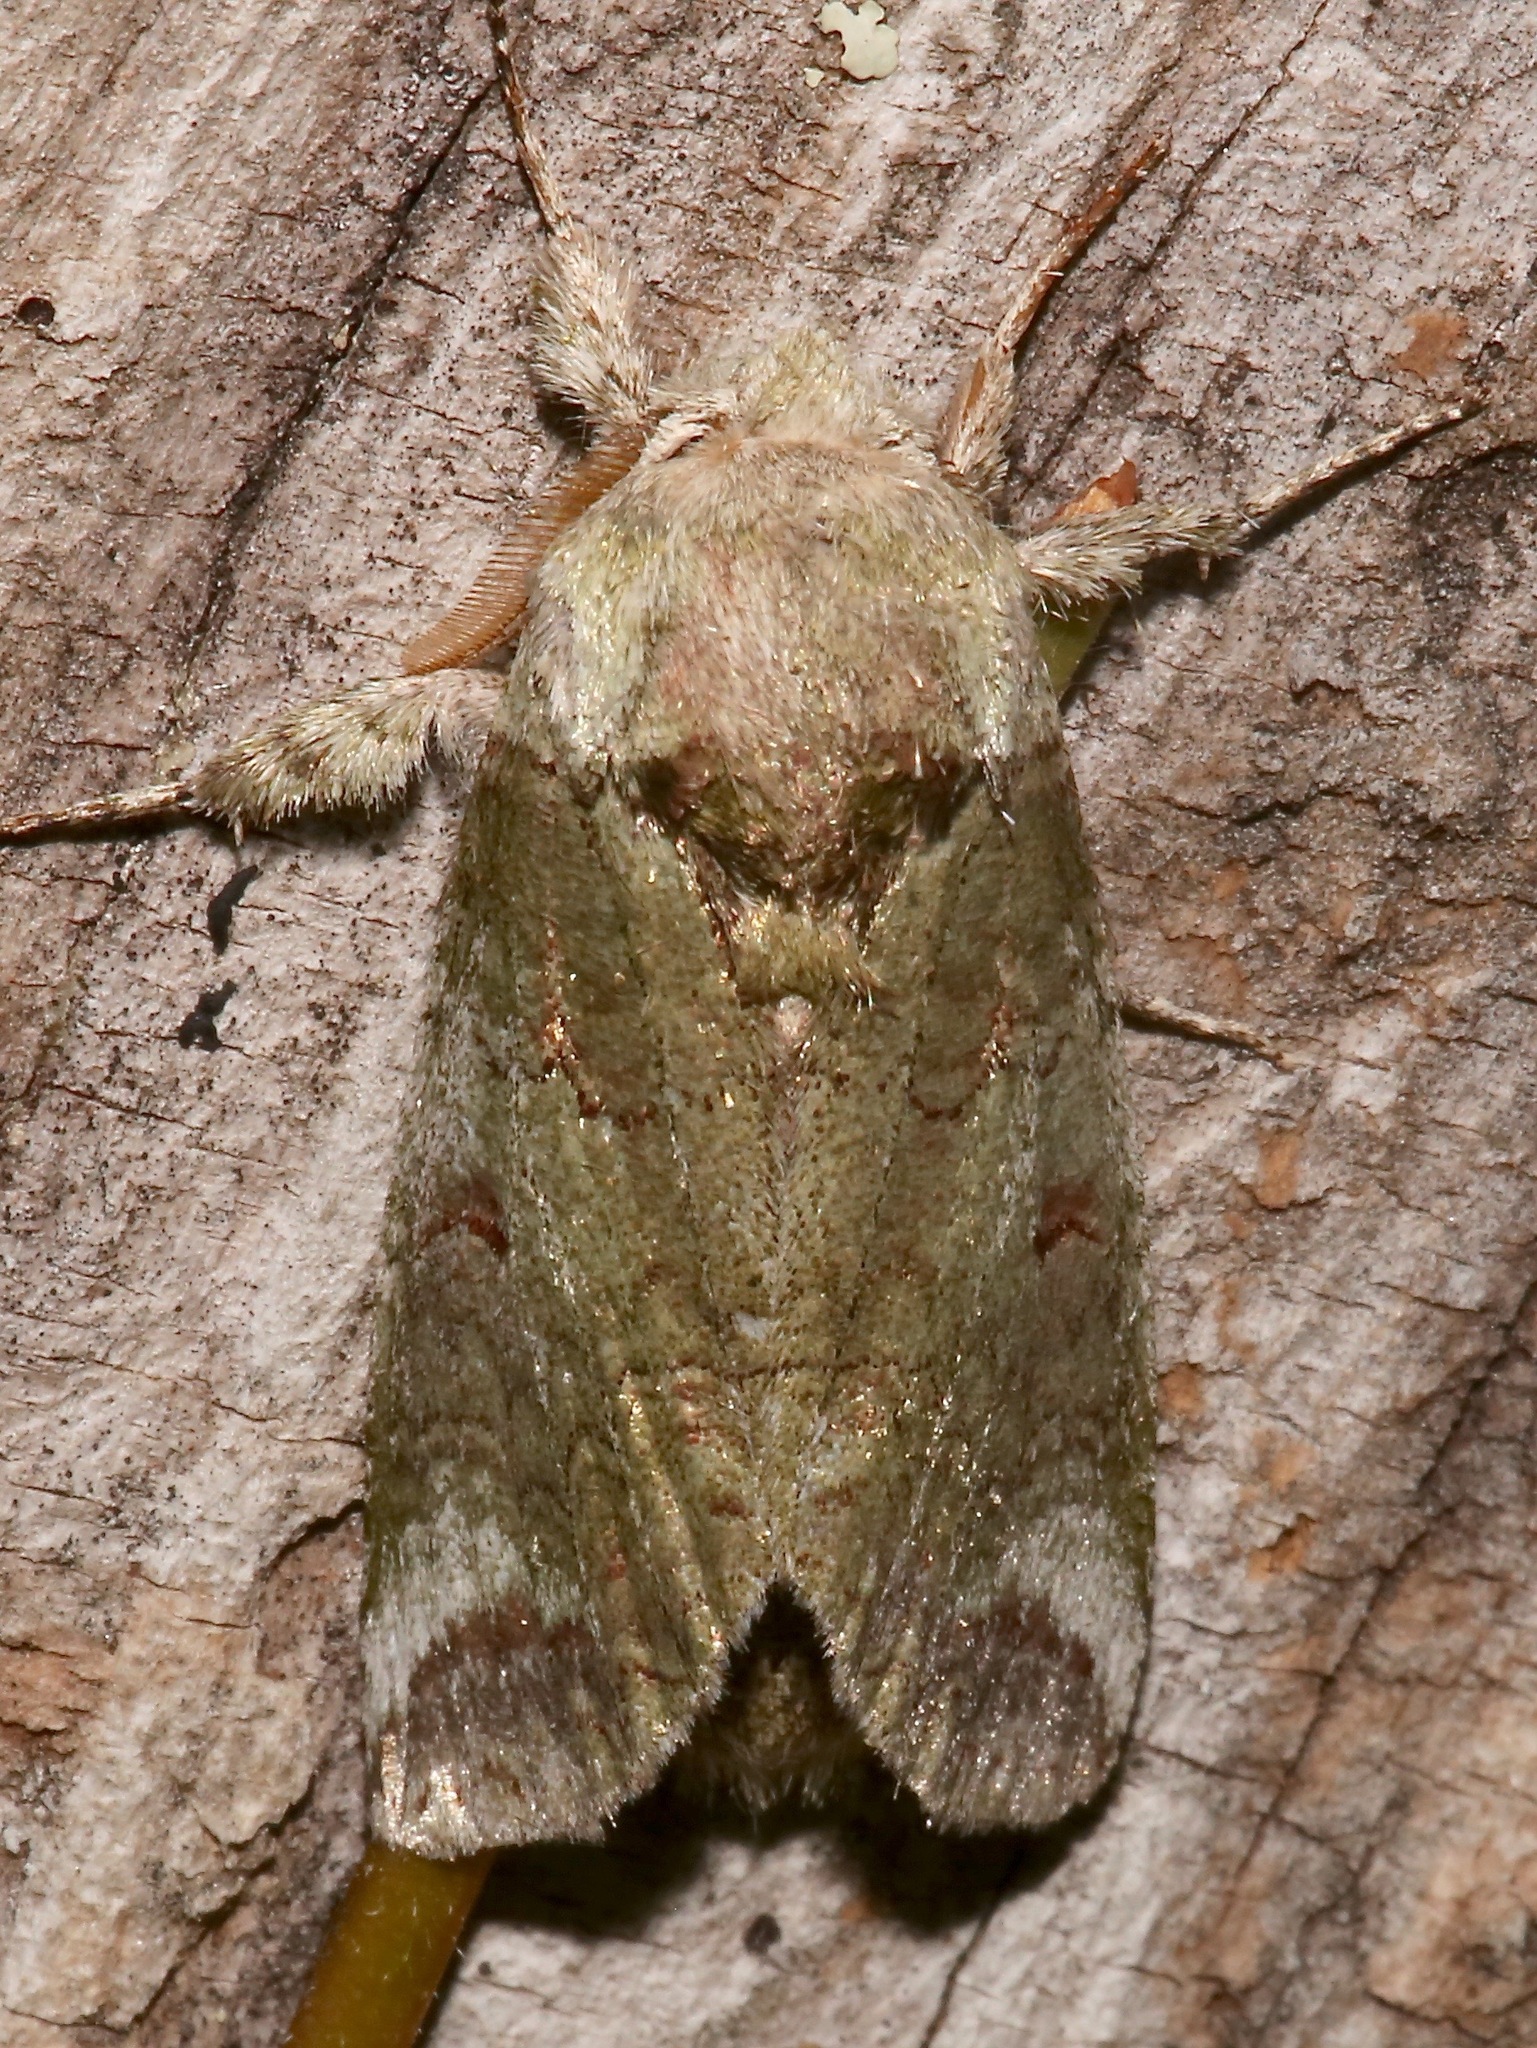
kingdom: Animalia
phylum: Arthropoda
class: Insecta
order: Lepidoptera
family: Notodontidae
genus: Heterocampa
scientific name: Heterocampa astarte
